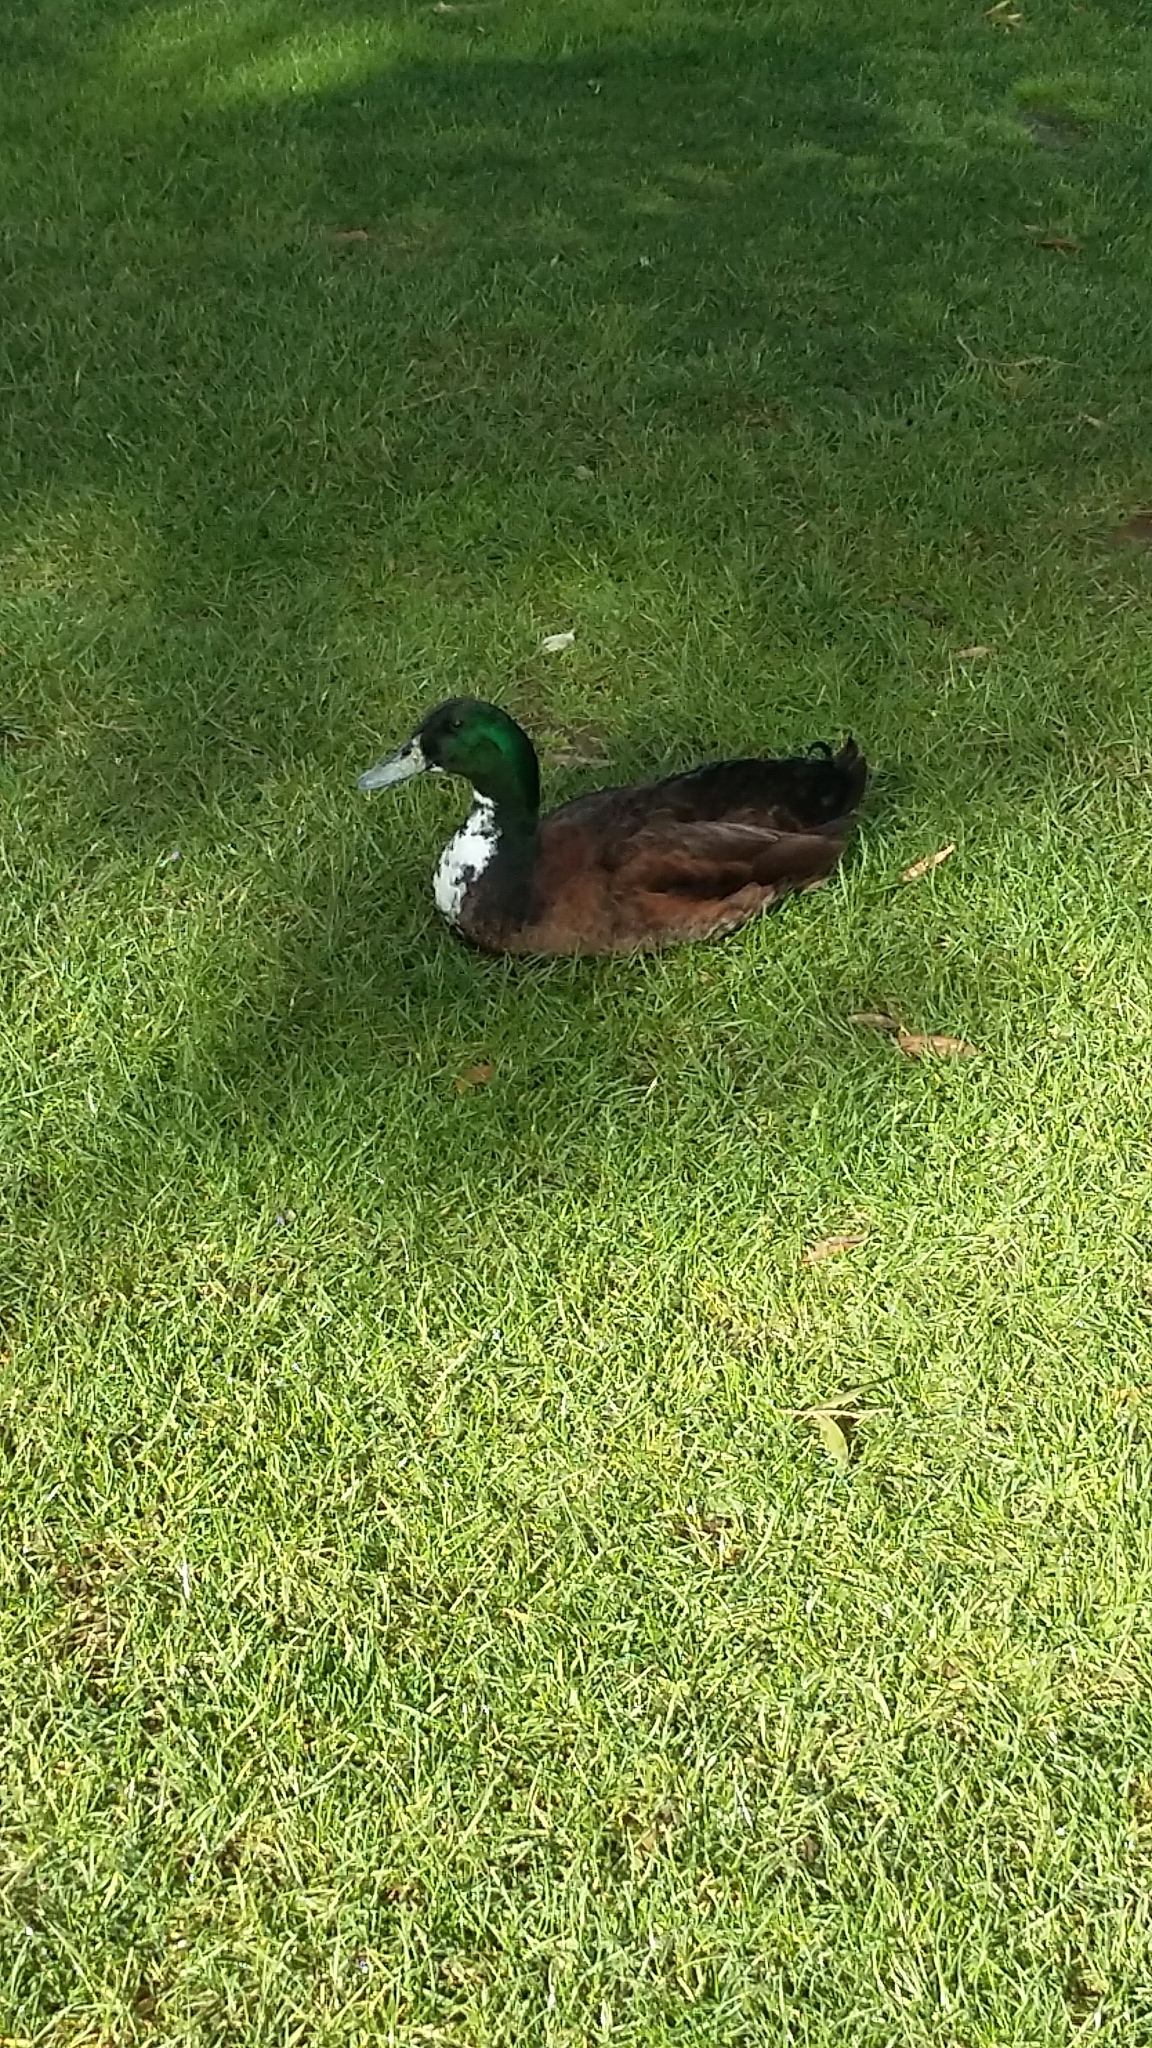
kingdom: Animalia
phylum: Chordata
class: Aves
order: Anseriformes
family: Anatidae
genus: Anas
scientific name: Anas platyrhynchos
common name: Mallard
